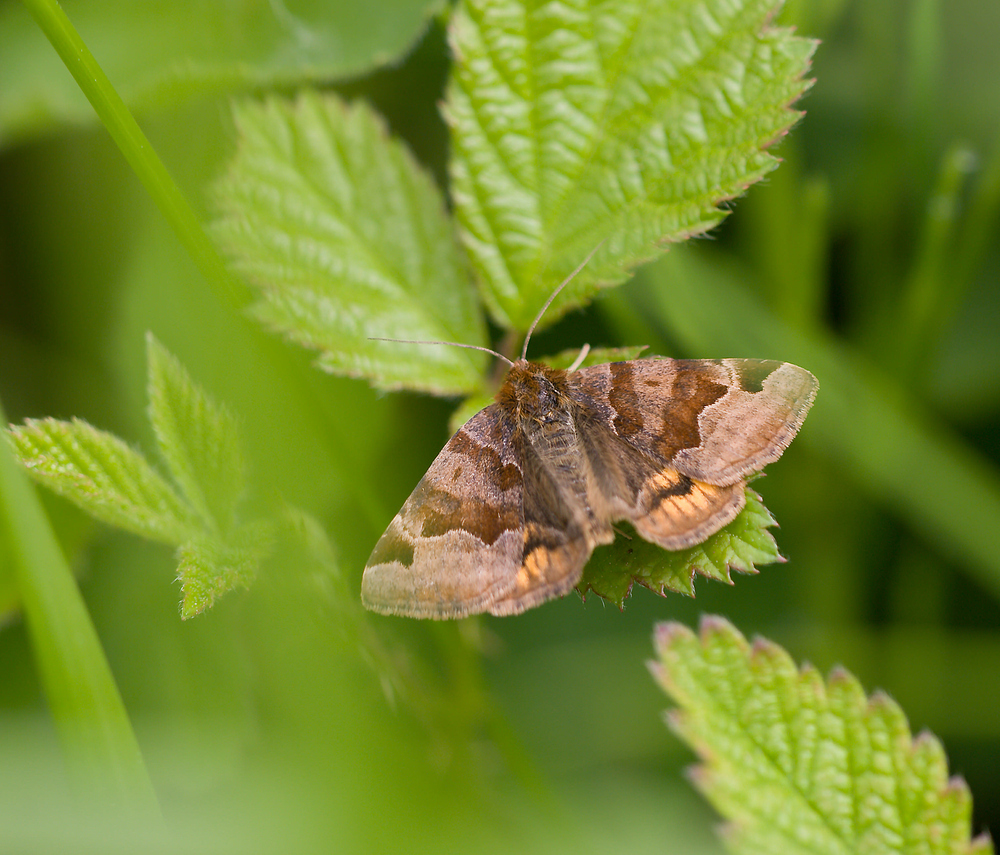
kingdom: Animalia
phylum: Arthropoda
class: Insecta
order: Lepidoptera
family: Erebidae
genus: Euclidia
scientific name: Euclidia glyphica
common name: Burnet companion
